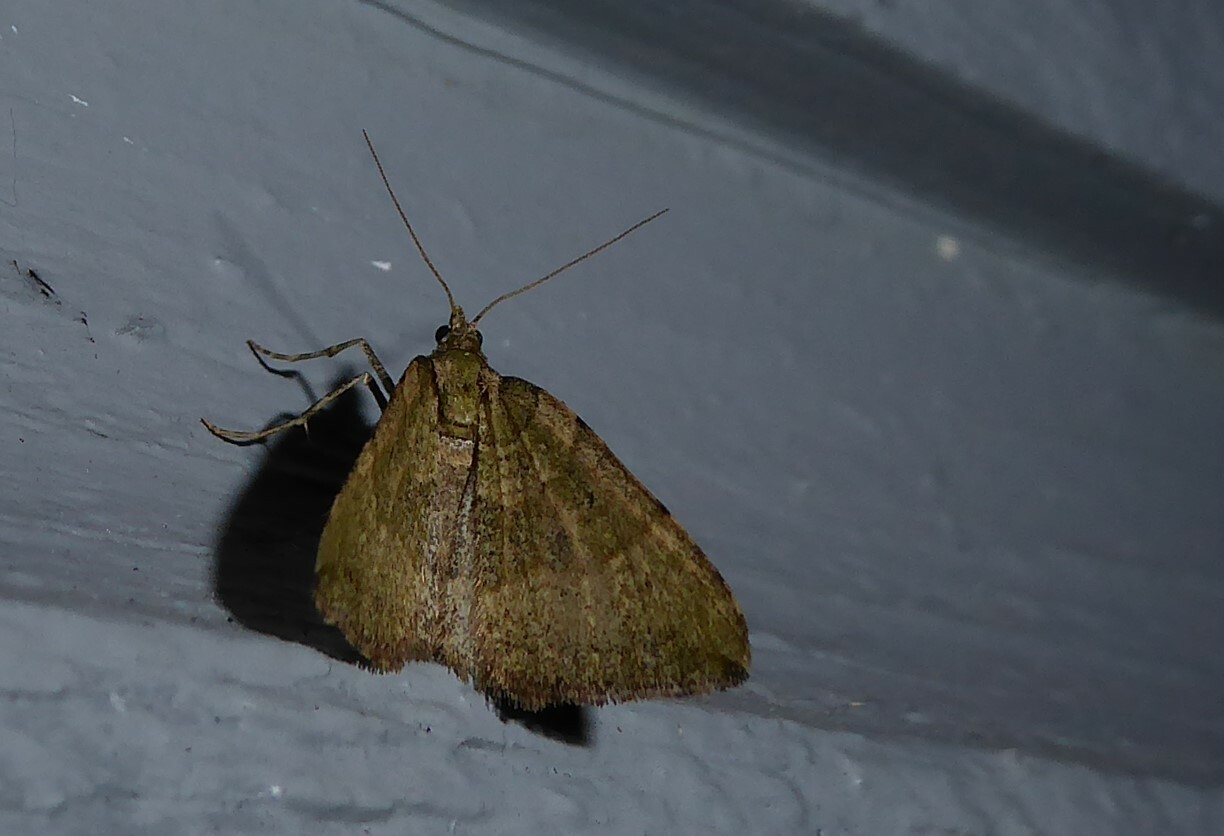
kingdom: Animalia
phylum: Arthropoda
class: Insecta
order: Lepidoptera
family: Geometridae
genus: Epyaxa
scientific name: Epyaxa rosearia
